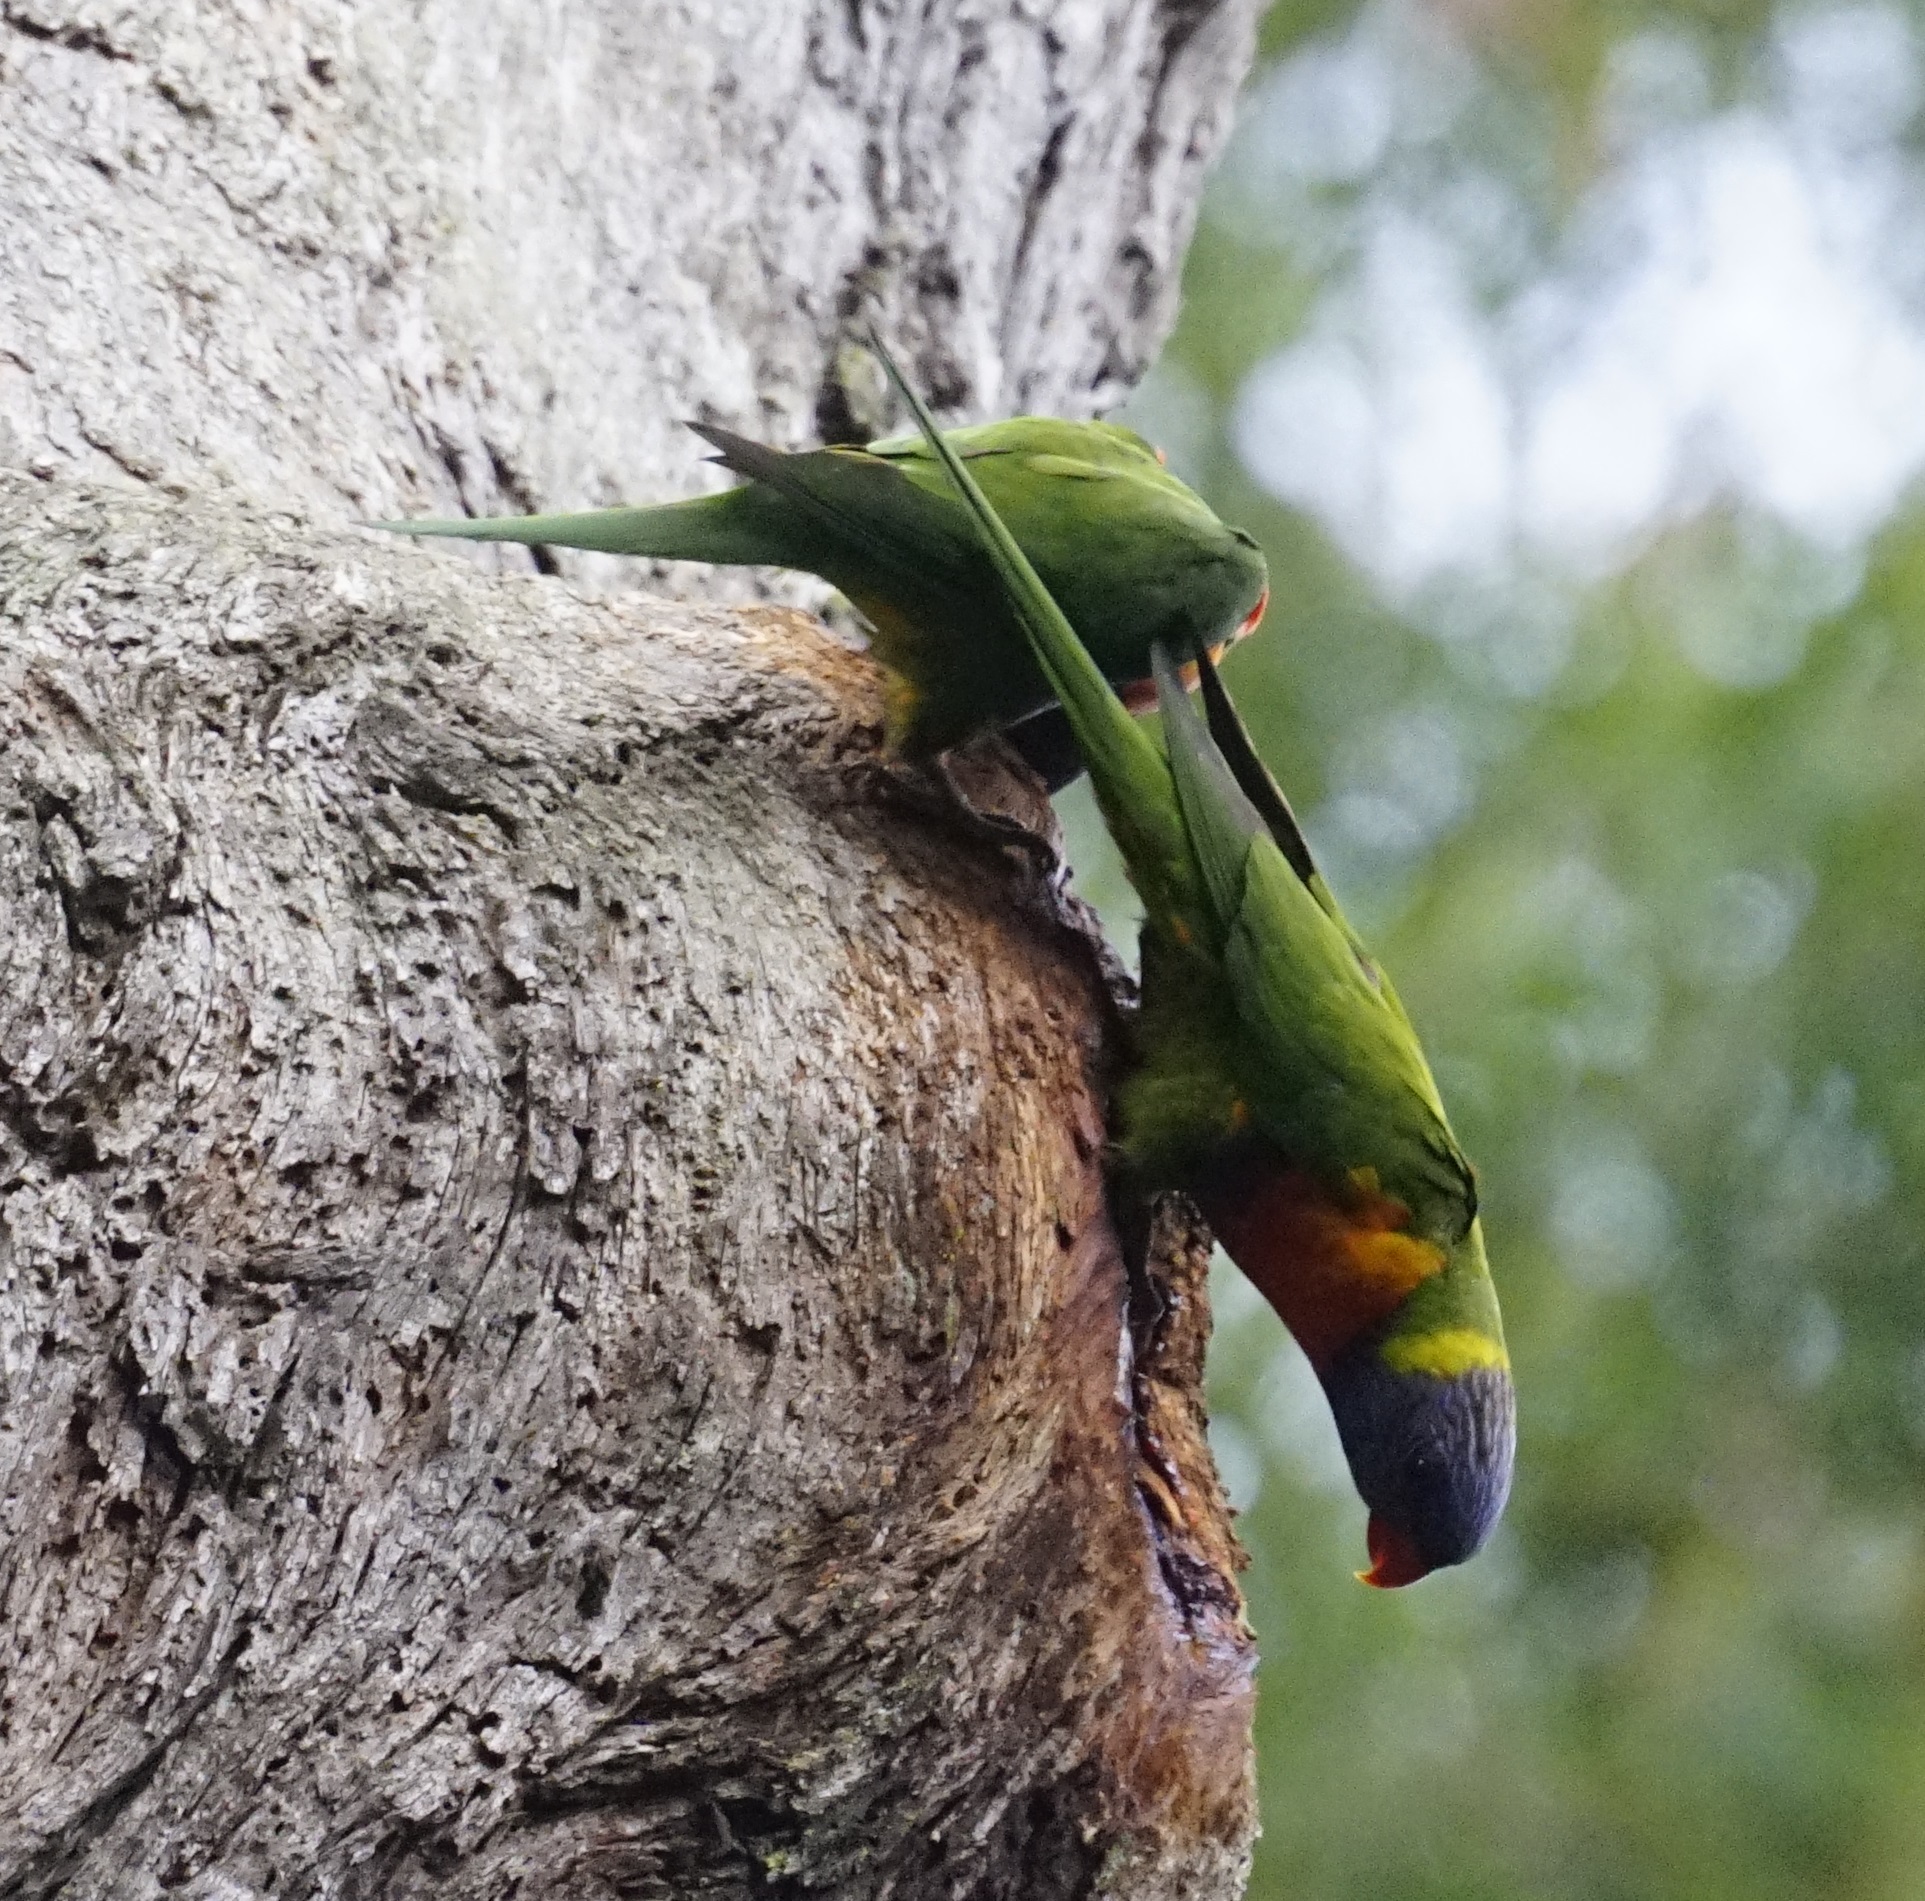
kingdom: Animalia
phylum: Chordata
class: Aves
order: Psittaciformes
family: Psittacidae
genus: Trichoglossus
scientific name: Trichoglossus haematodus
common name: Coconut lorikeet
